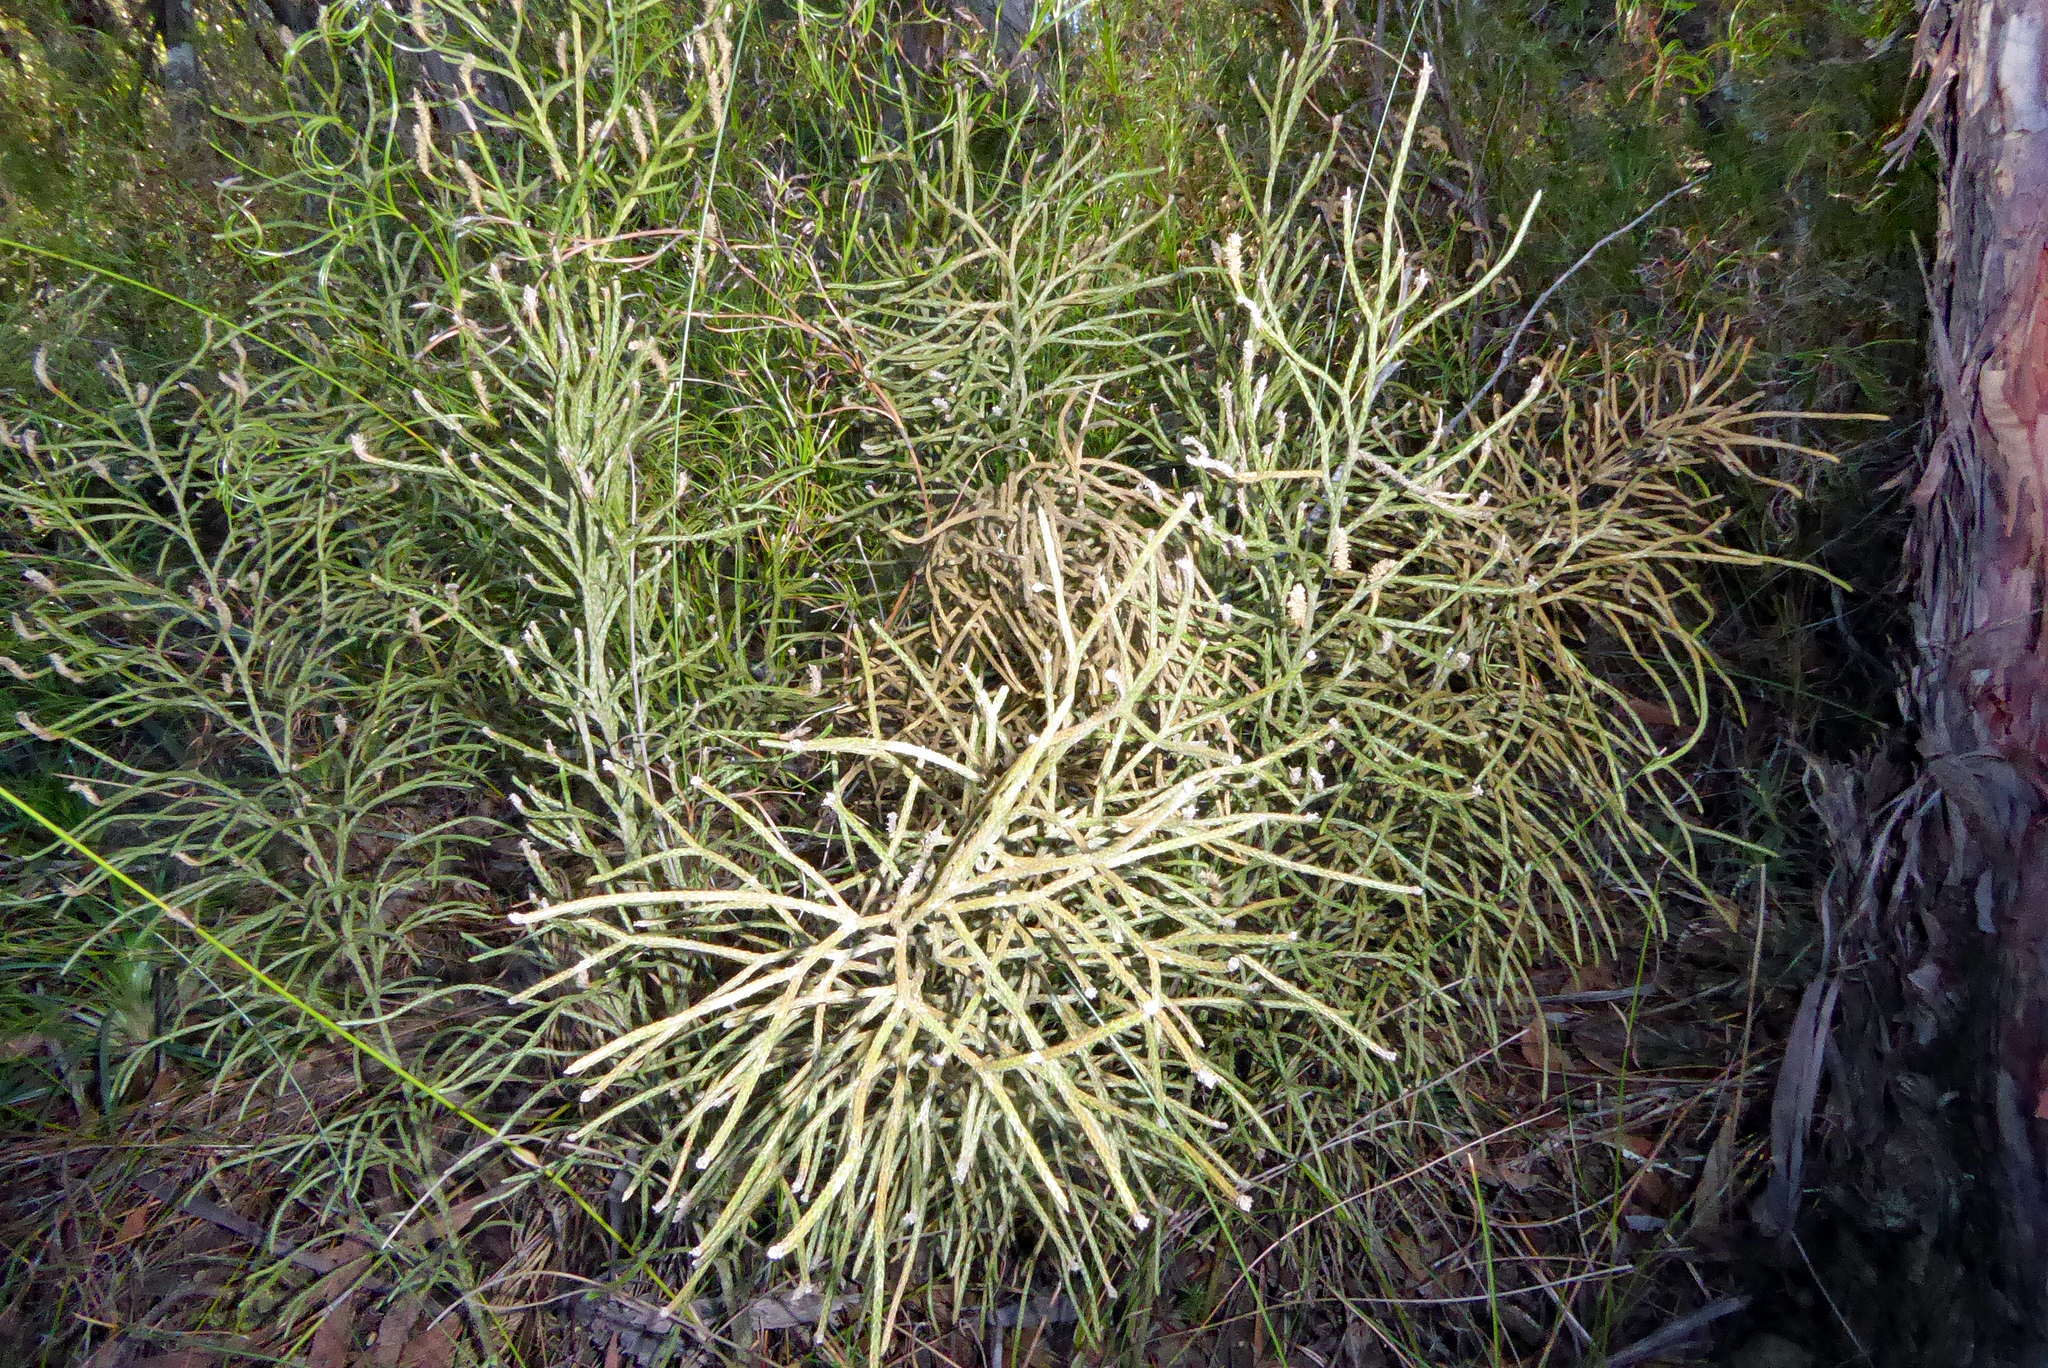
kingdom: Plantae
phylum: Tracheophyta
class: Lycopodiopsida
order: Lycopodiales
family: Lycopodiaceae
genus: Pseudolycopodium
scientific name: Pseudolycopodium densum
